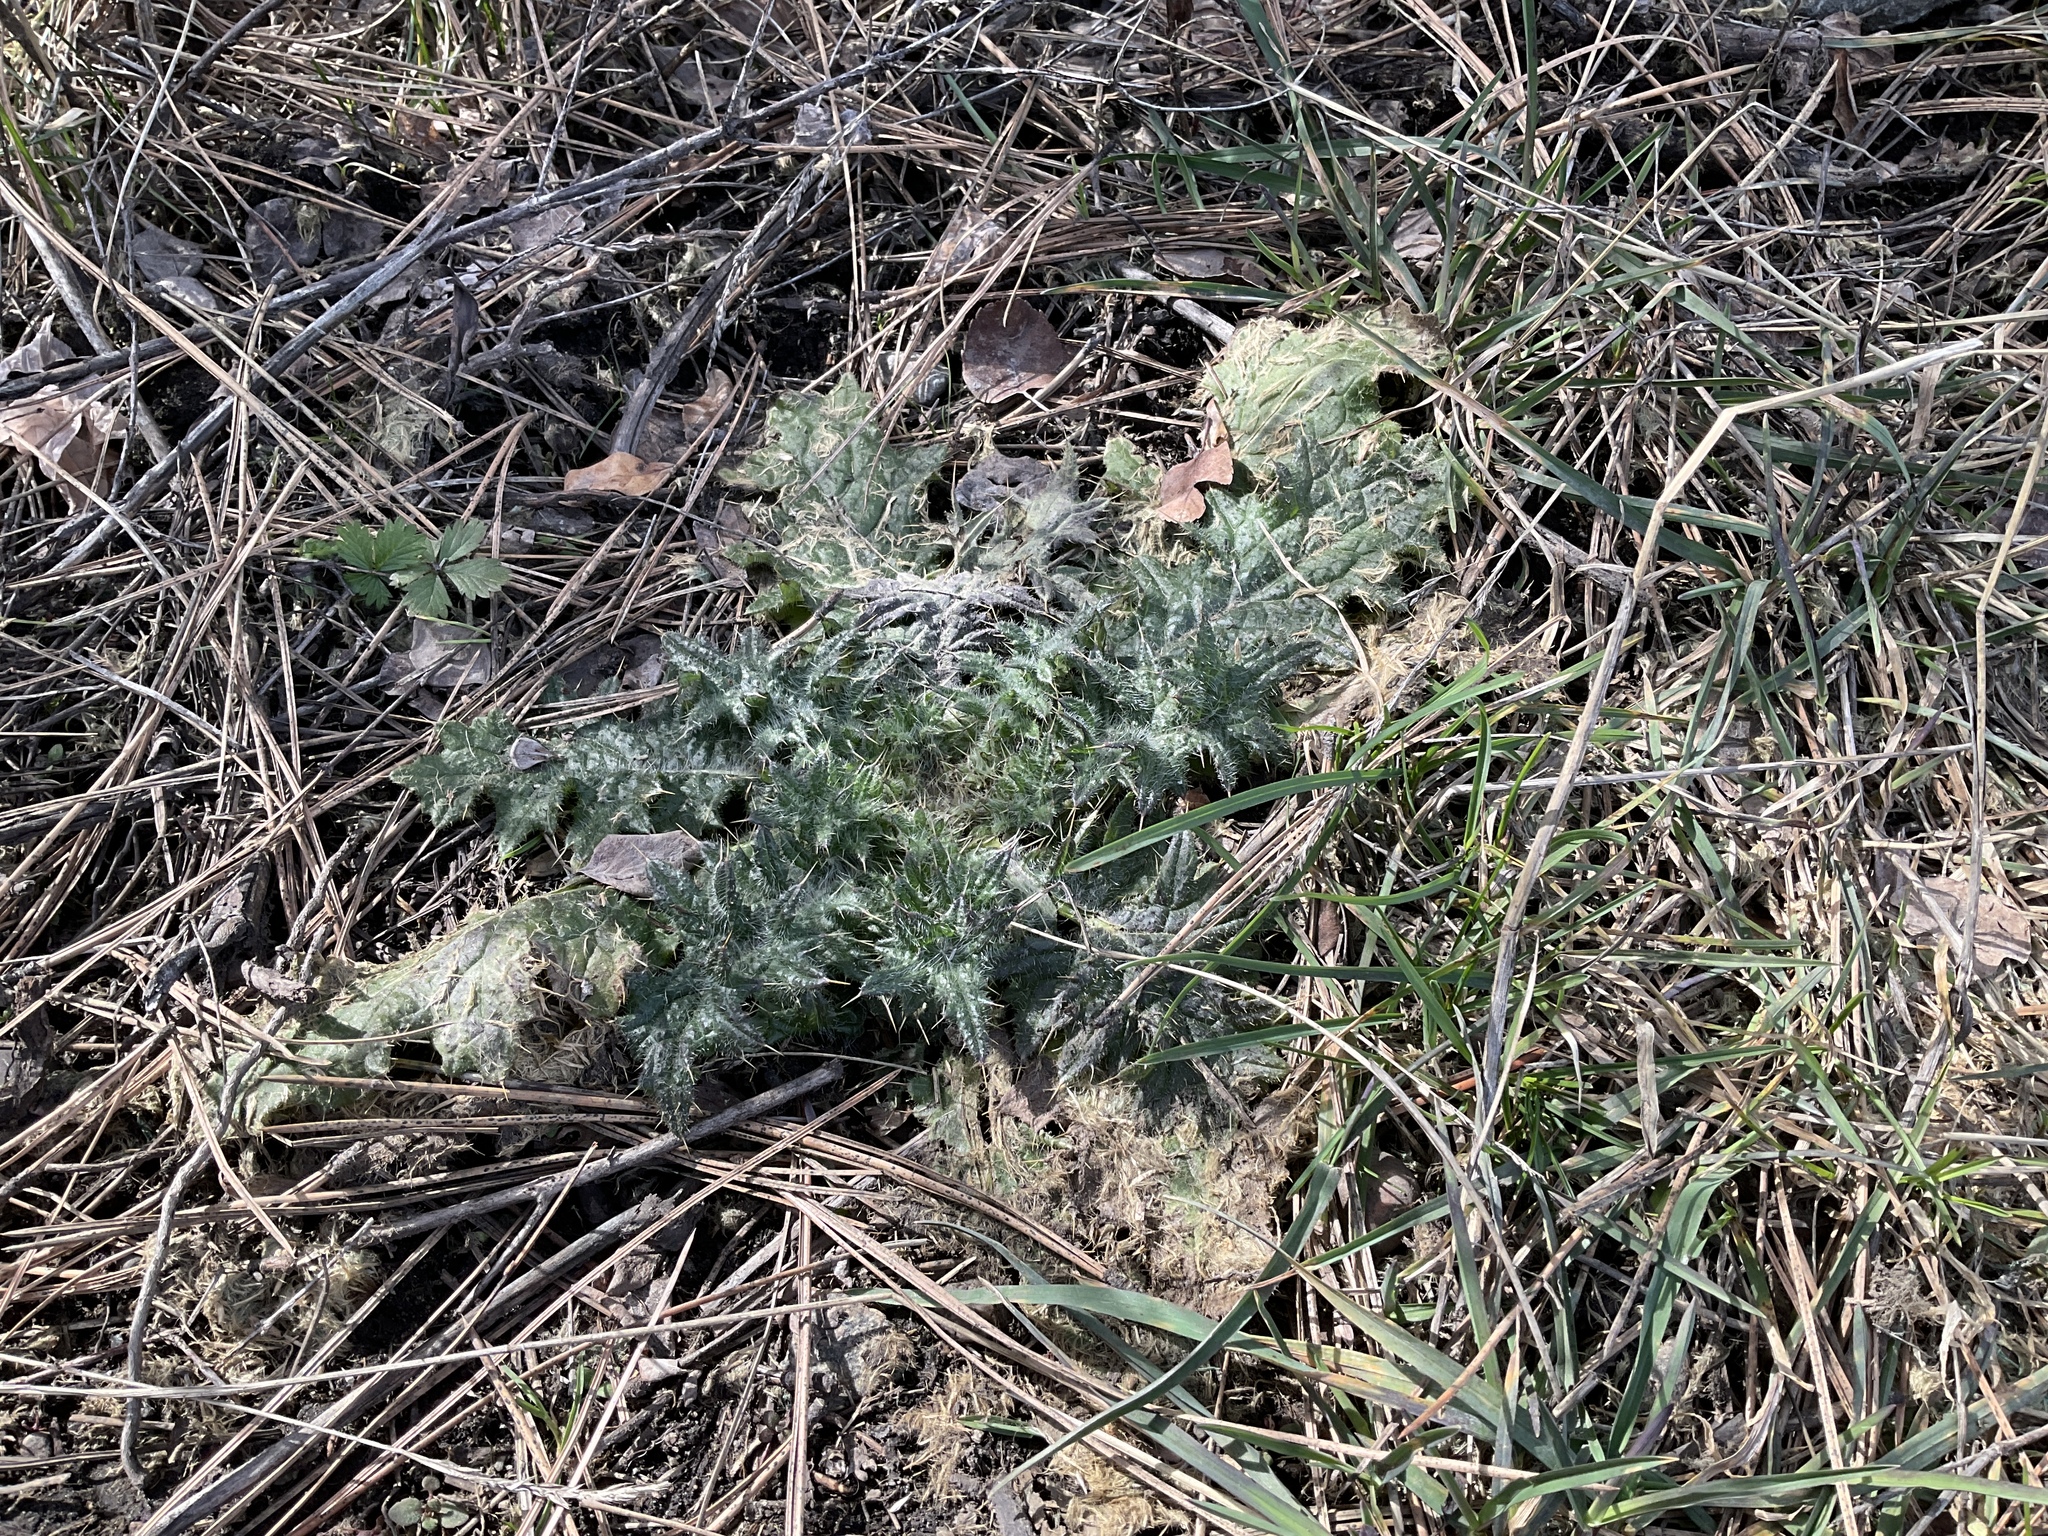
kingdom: Plantae
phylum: Tracheophyta
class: Magnoliopsida
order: Asterales
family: Asteraceae
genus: Cirsium
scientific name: Cirsium vulgare
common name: Bull thistle
